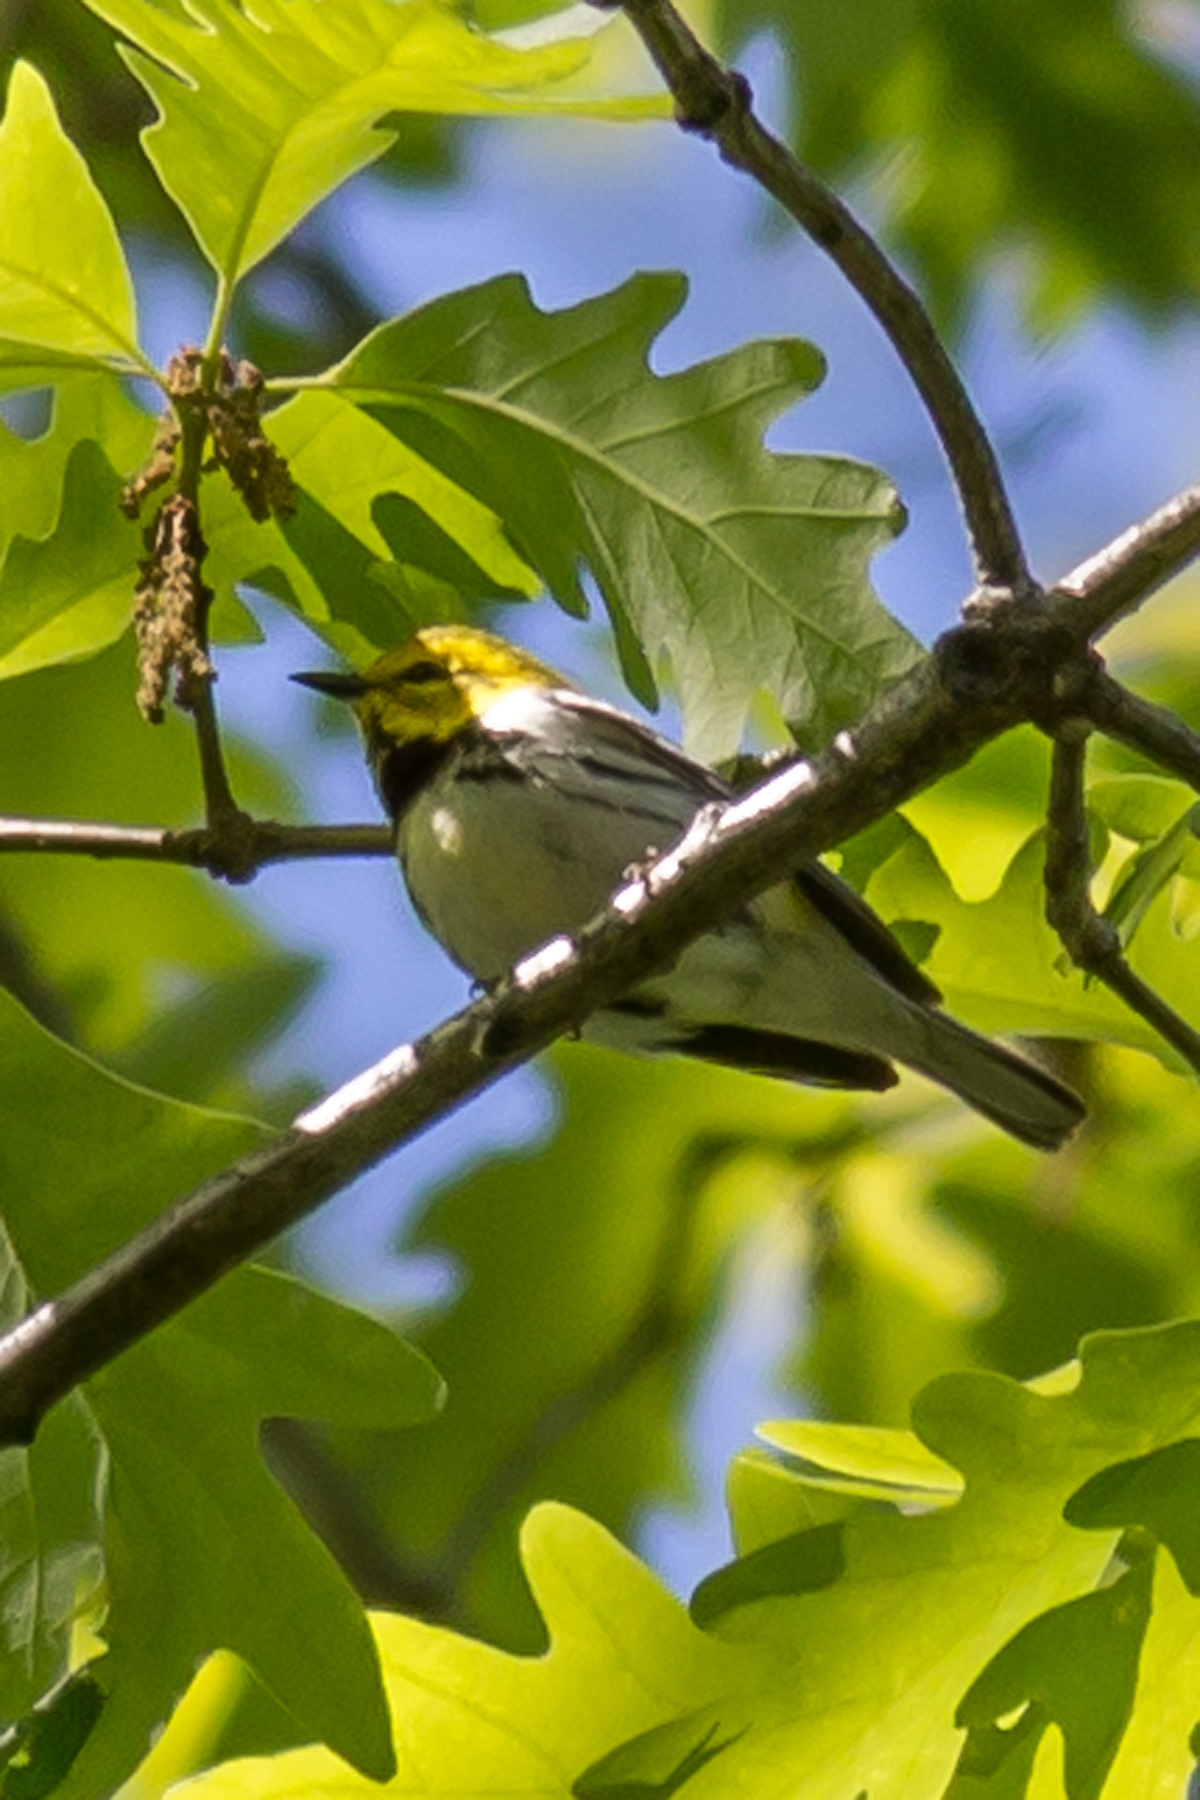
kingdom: Animalia
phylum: Chordata
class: Aves
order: Passeriformes
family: Parulidae
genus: Setophaga
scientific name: Setophaga virens
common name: Black-throated green warbler
